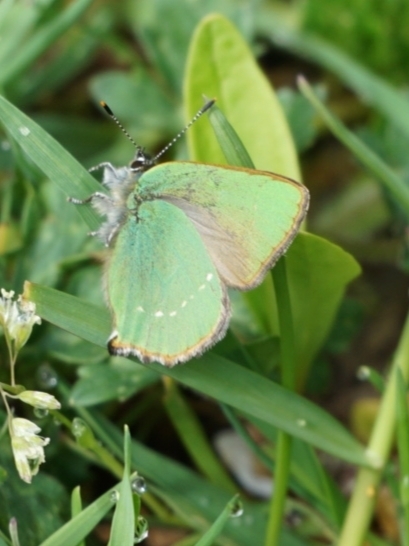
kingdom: Animalia
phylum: Arthropoda
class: Insecta
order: Lepidoptera
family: Lycaenidae
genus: Callophrys
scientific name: Callophrys rubi
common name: Green hairstreak
